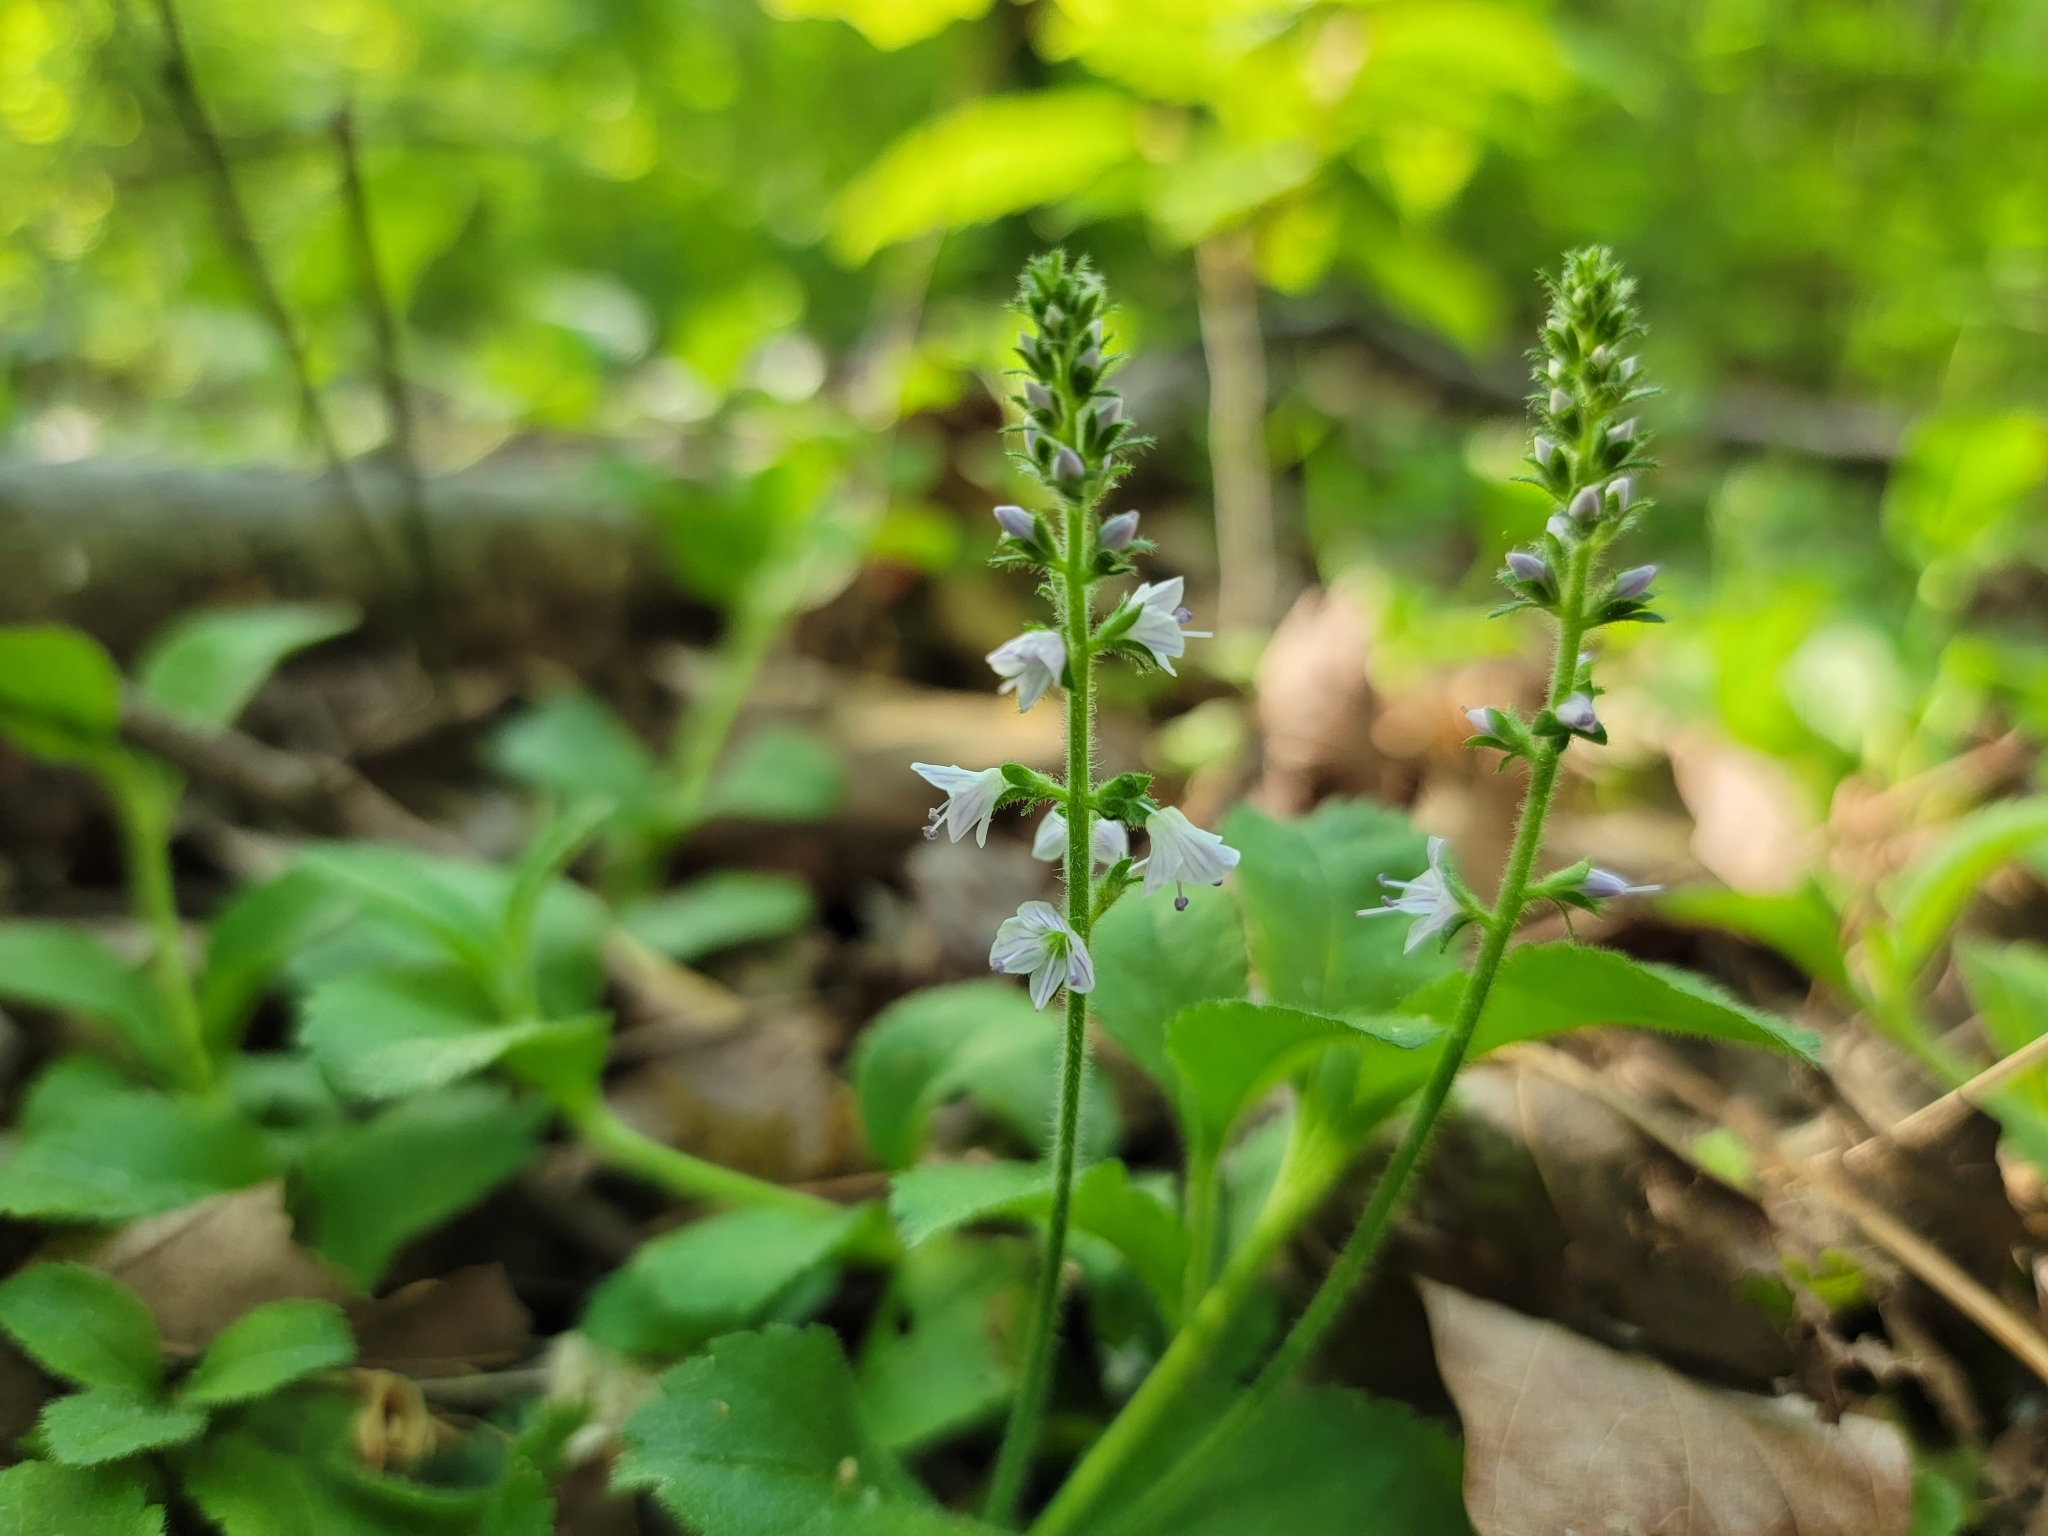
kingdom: Plantae
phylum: Tracheophyta
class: Magnoliopsida
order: Lamiales
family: Plantaginaceae
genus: Veronica
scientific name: Veronica officinalis
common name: Common speedwell
